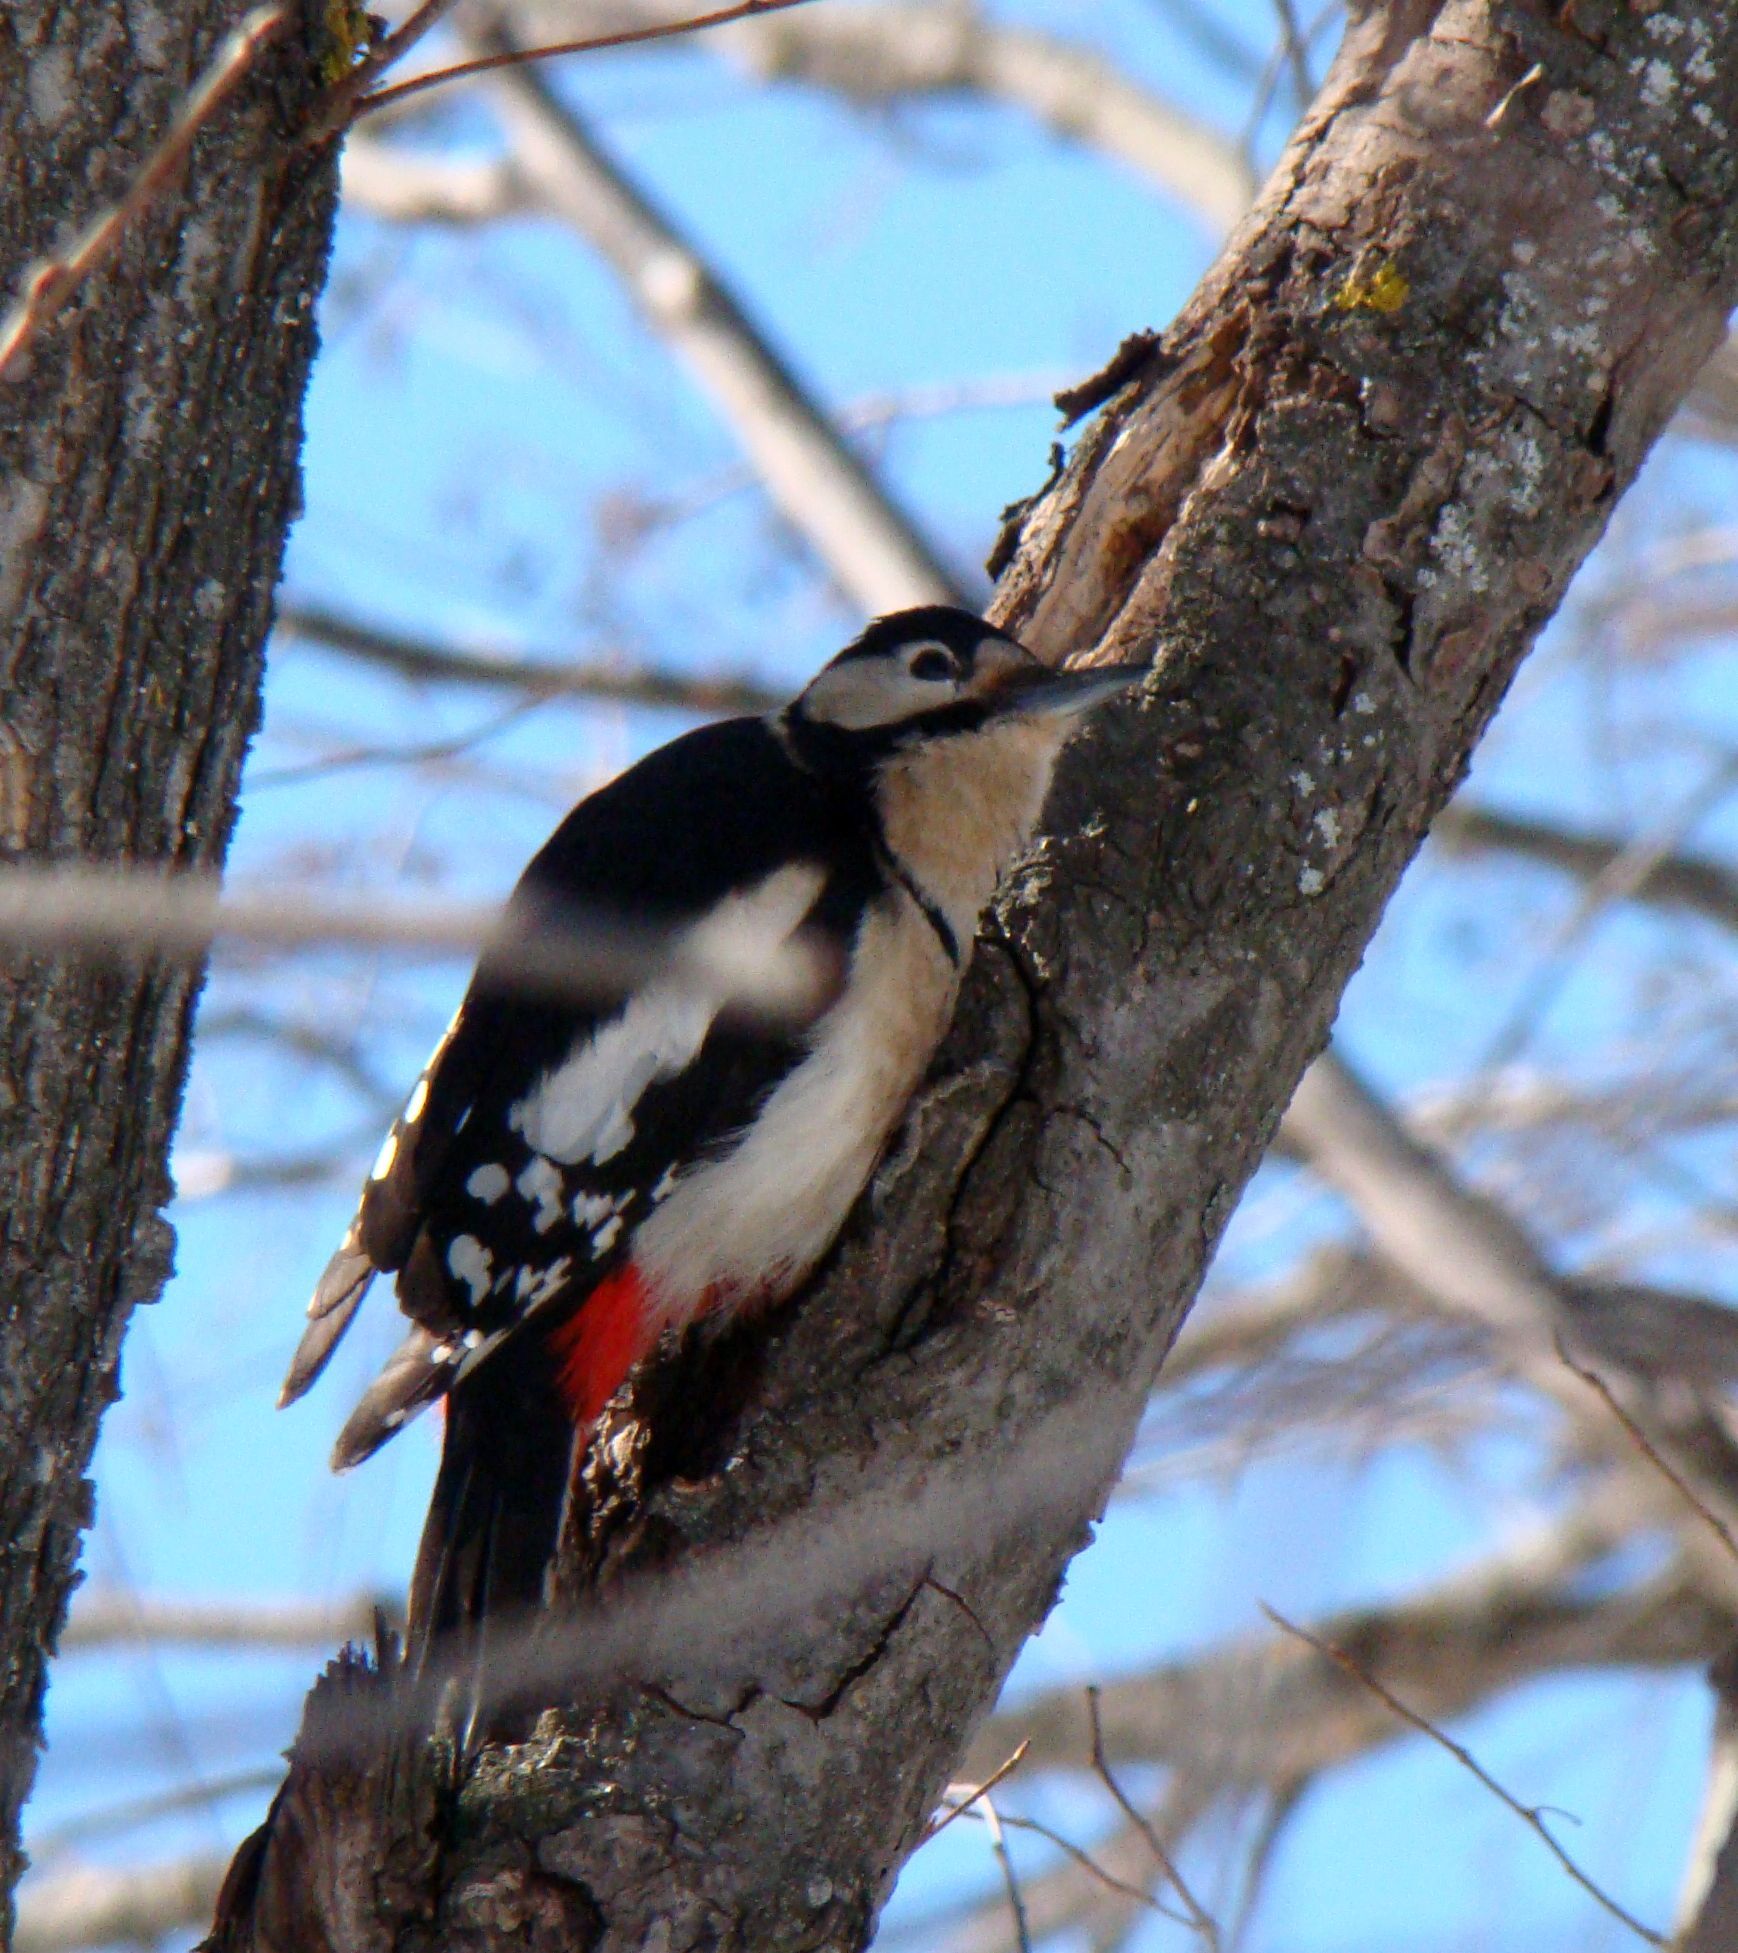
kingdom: Animalia
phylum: Chordata
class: Aves
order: Piciformes
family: Picidae
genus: Dendrocopos
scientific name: Dendrocopos major
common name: Great spotted woodpecker
